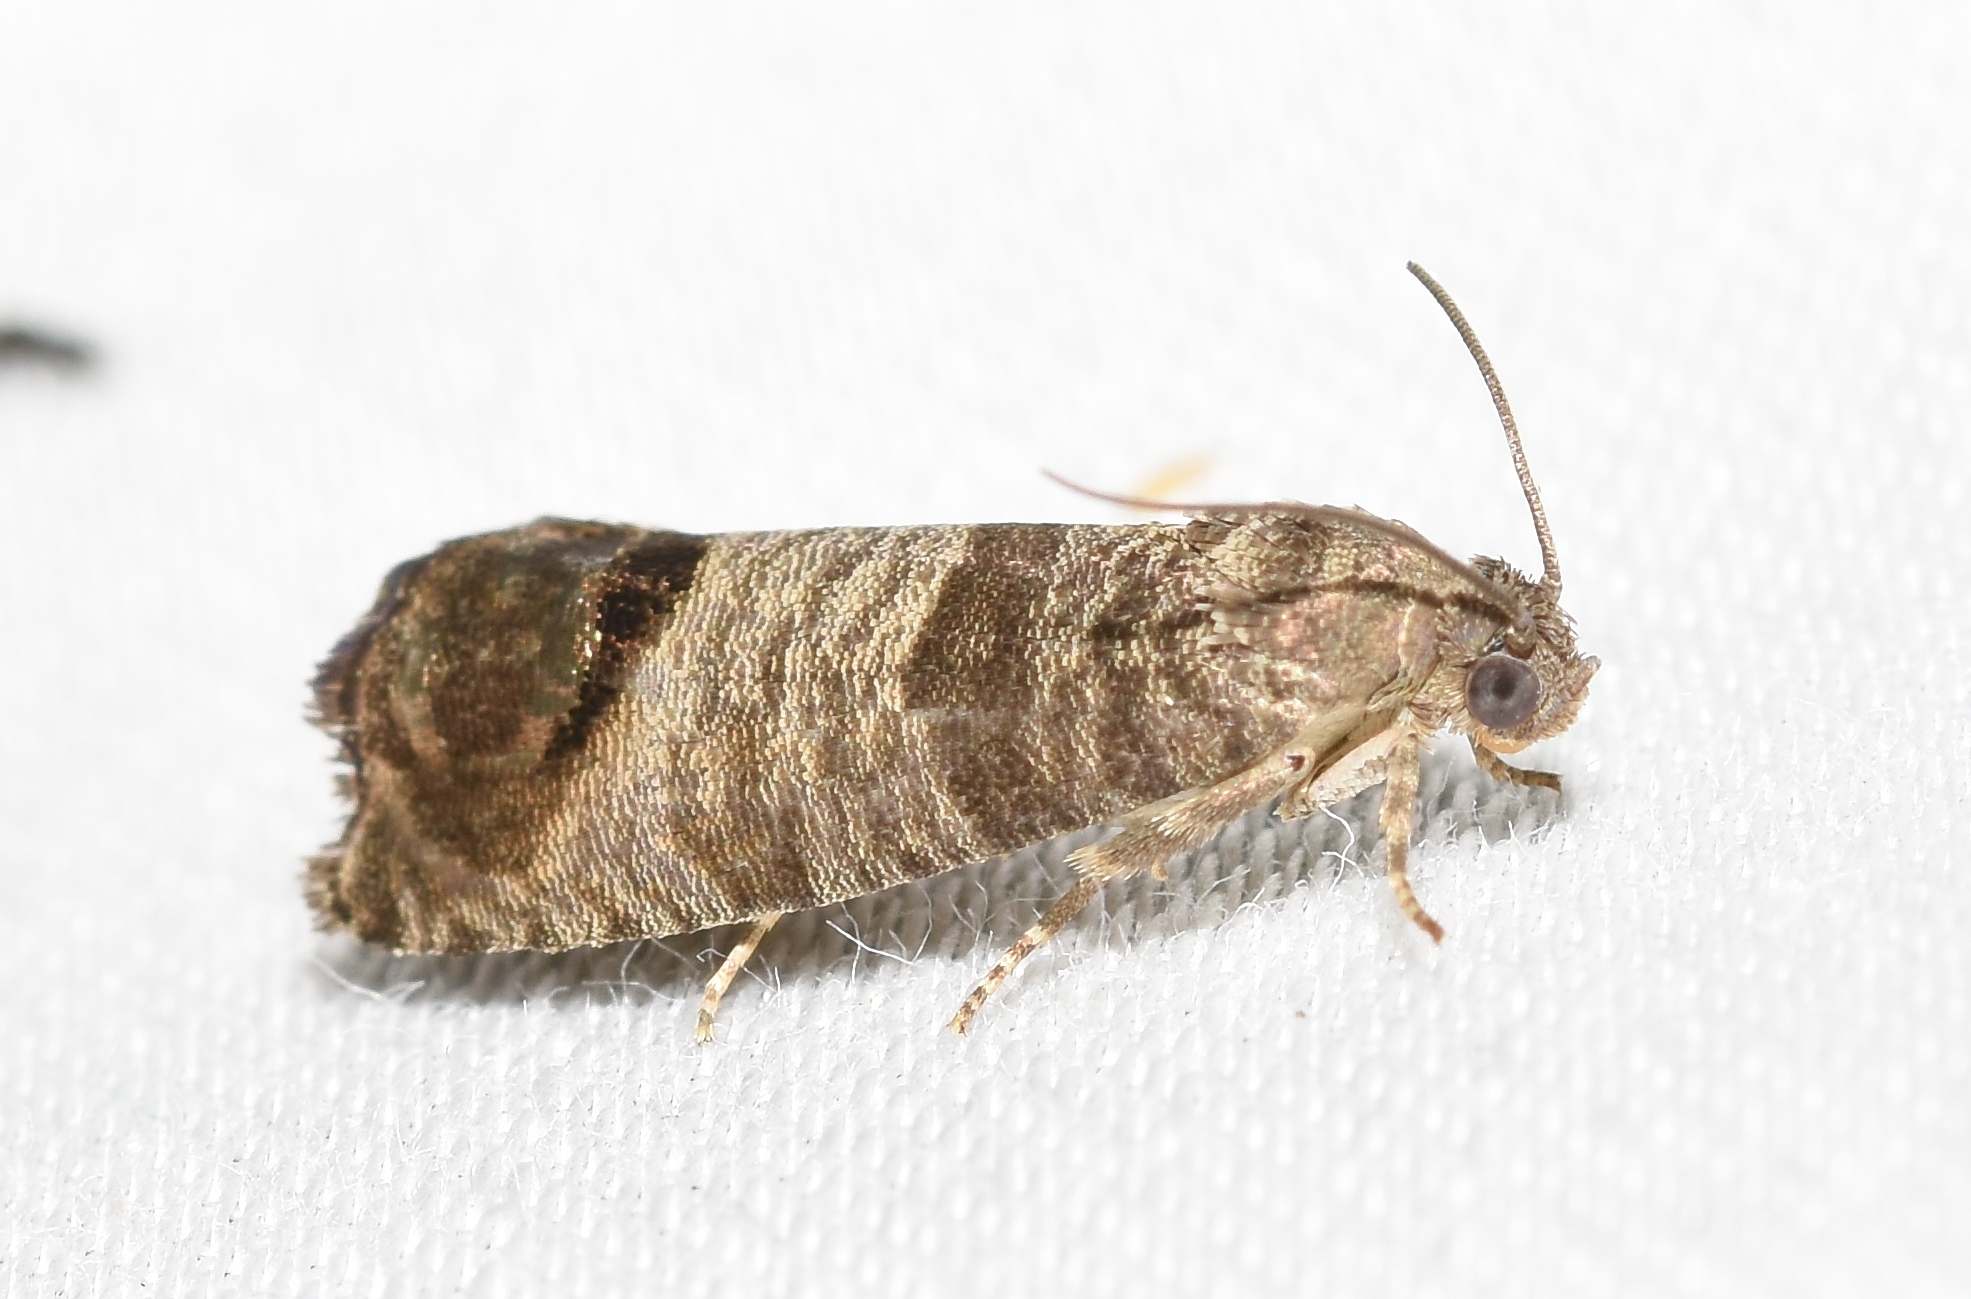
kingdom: Animalia
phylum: Arthropoda
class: Insecta
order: Lepidoptera
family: Tortricidae
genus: Cydia
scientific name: Cydia pomonella
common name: Codling moth
